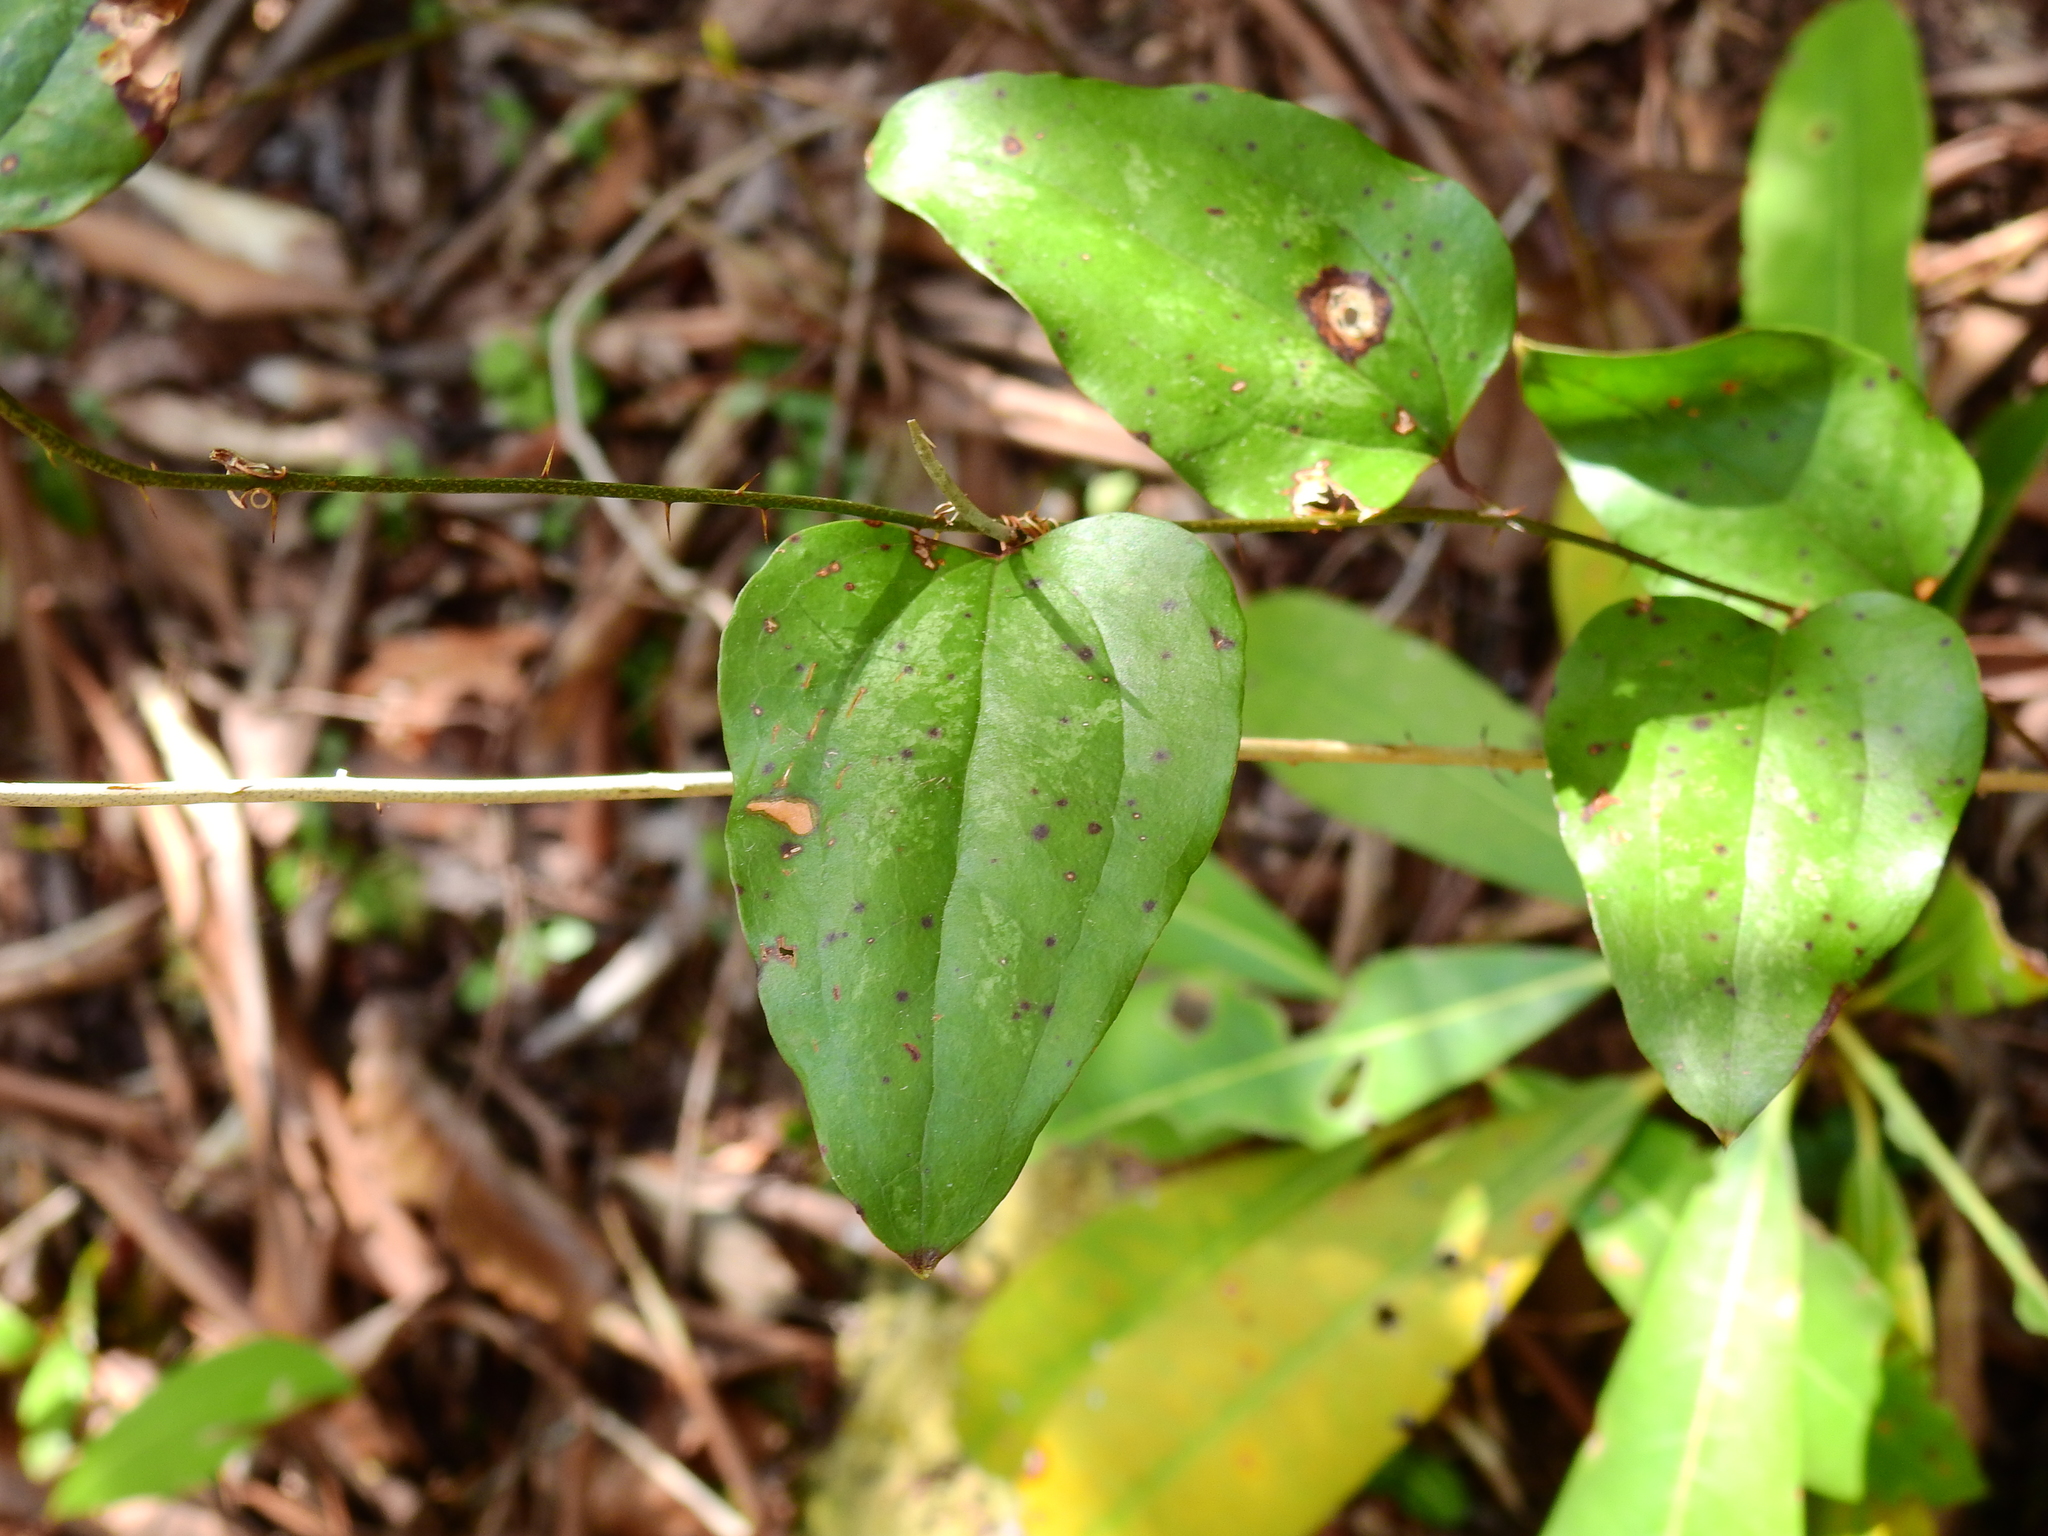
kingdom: Plantae
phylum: Tracheophyta
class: Liliopsida
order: Liliales
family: Smilacaceae
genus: Smilax
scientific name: Smilax glauca
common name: Cat greenbrier
